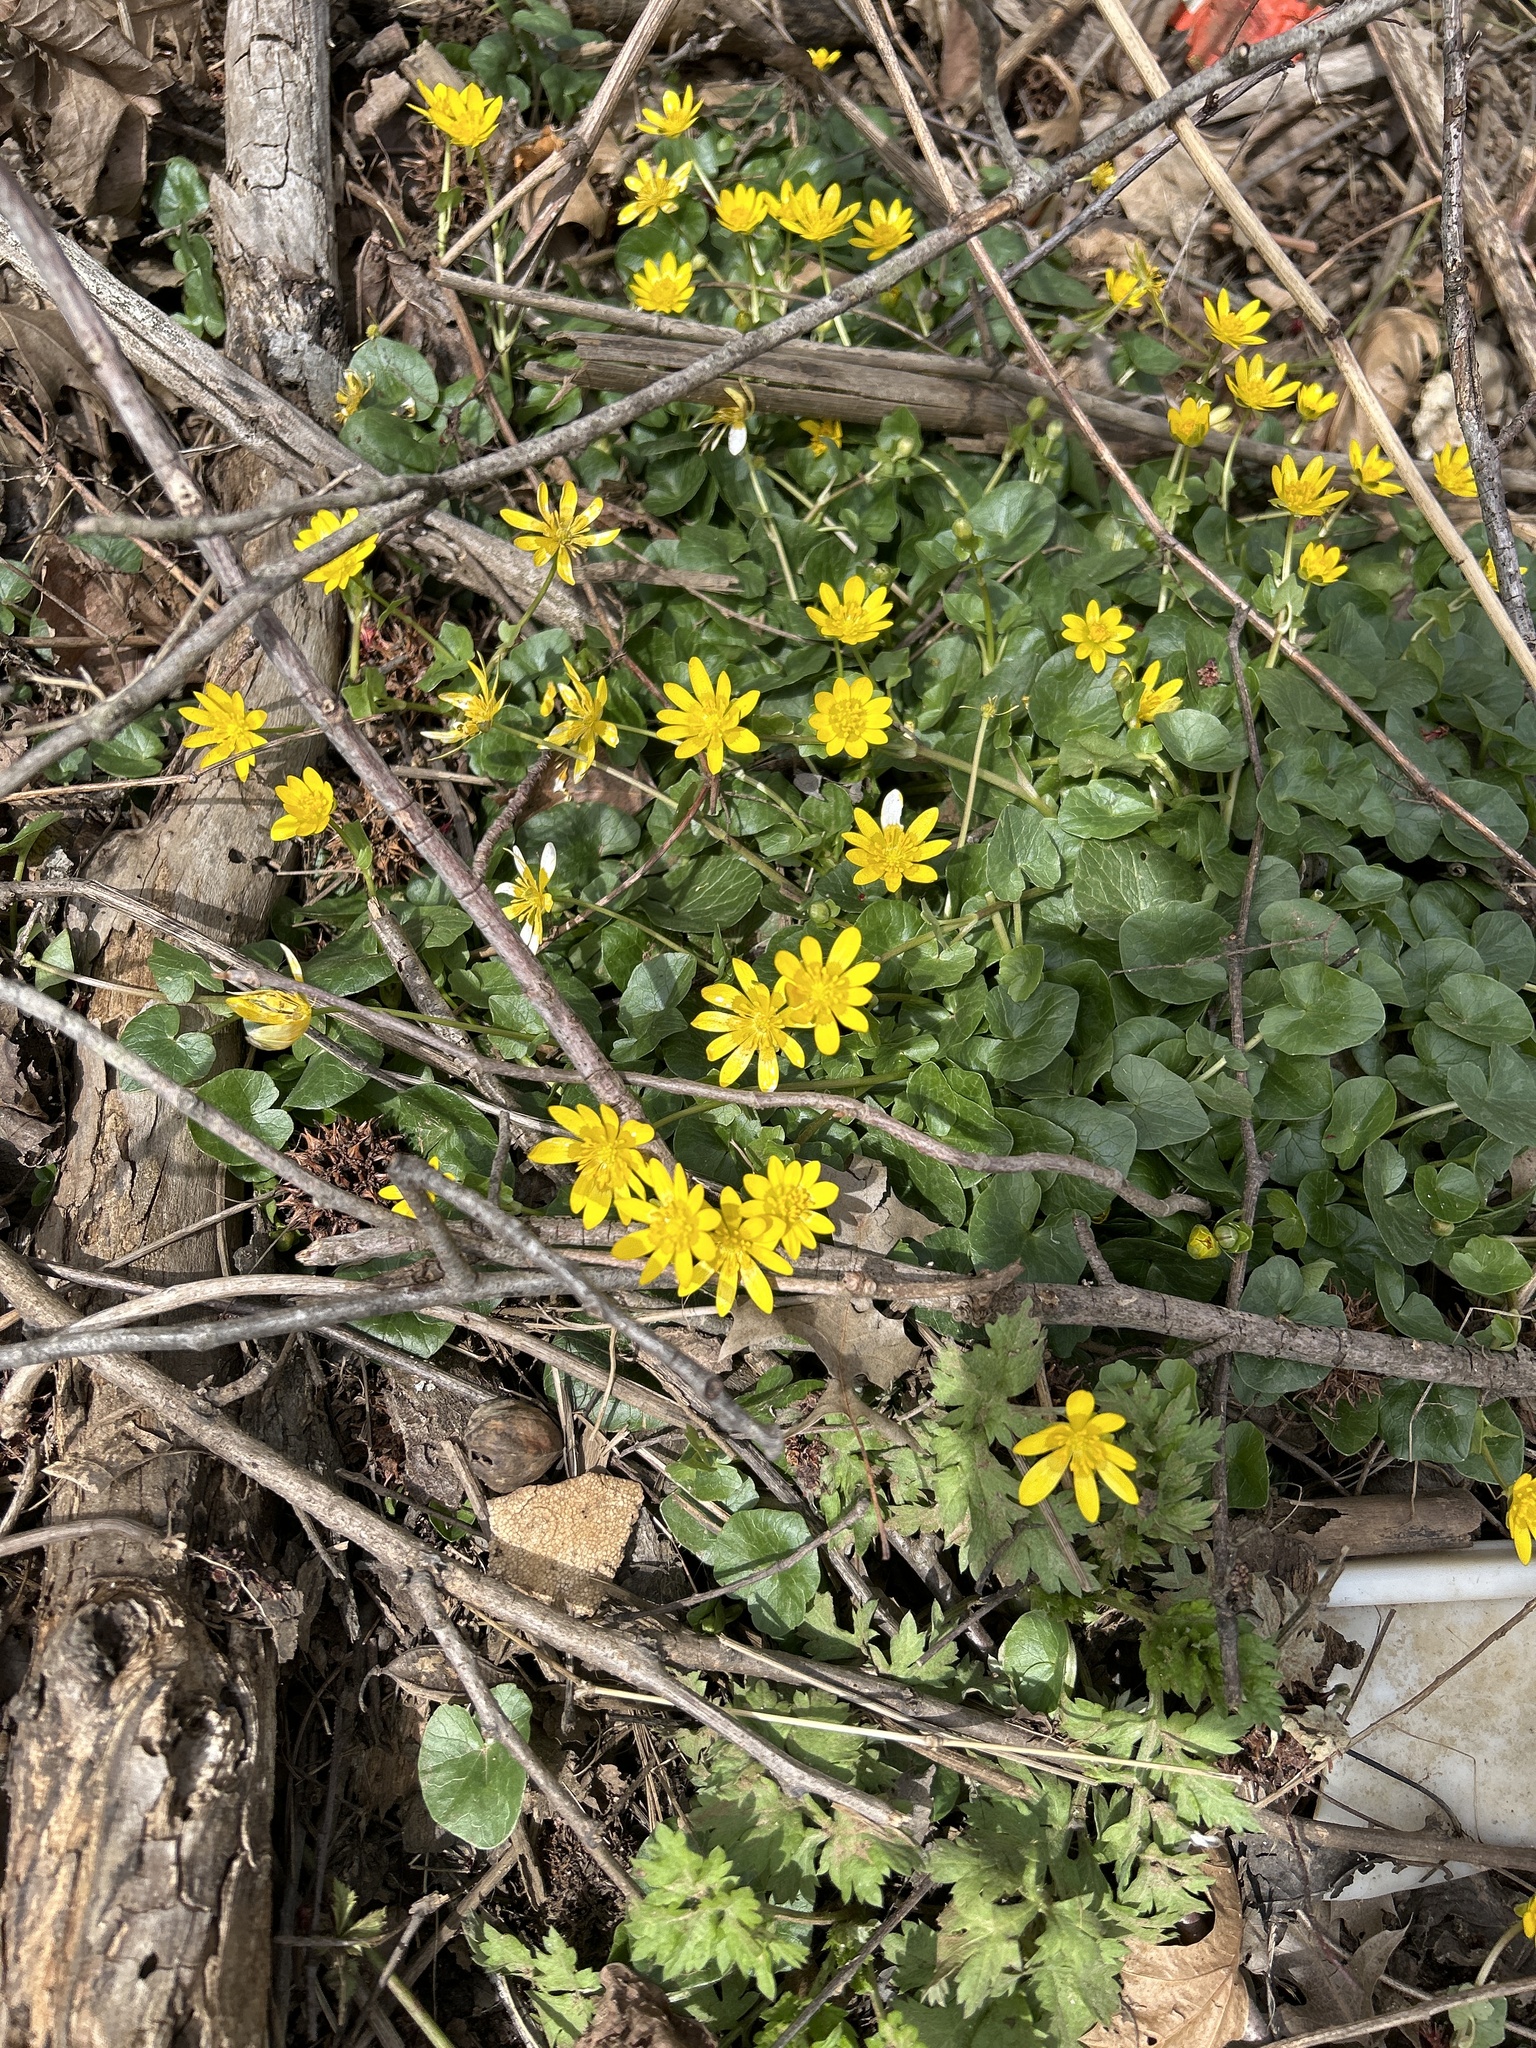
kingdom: Plantae
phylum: Tracheophyta
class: Magnoliopsida
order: Ranunculales
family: Ranunculaceae
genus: Ficaria
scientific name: Ficaria verna
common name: Lesser celandine
